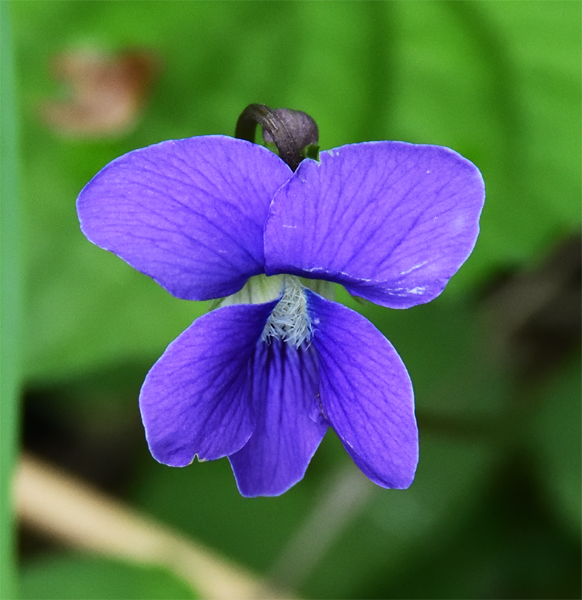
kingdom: Plantae
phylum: Tracheophyta
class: Magnoliopsida
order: Malpighiales
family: Violaceae
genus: Viola
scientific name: Viola sororia
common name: Dooryard violet
